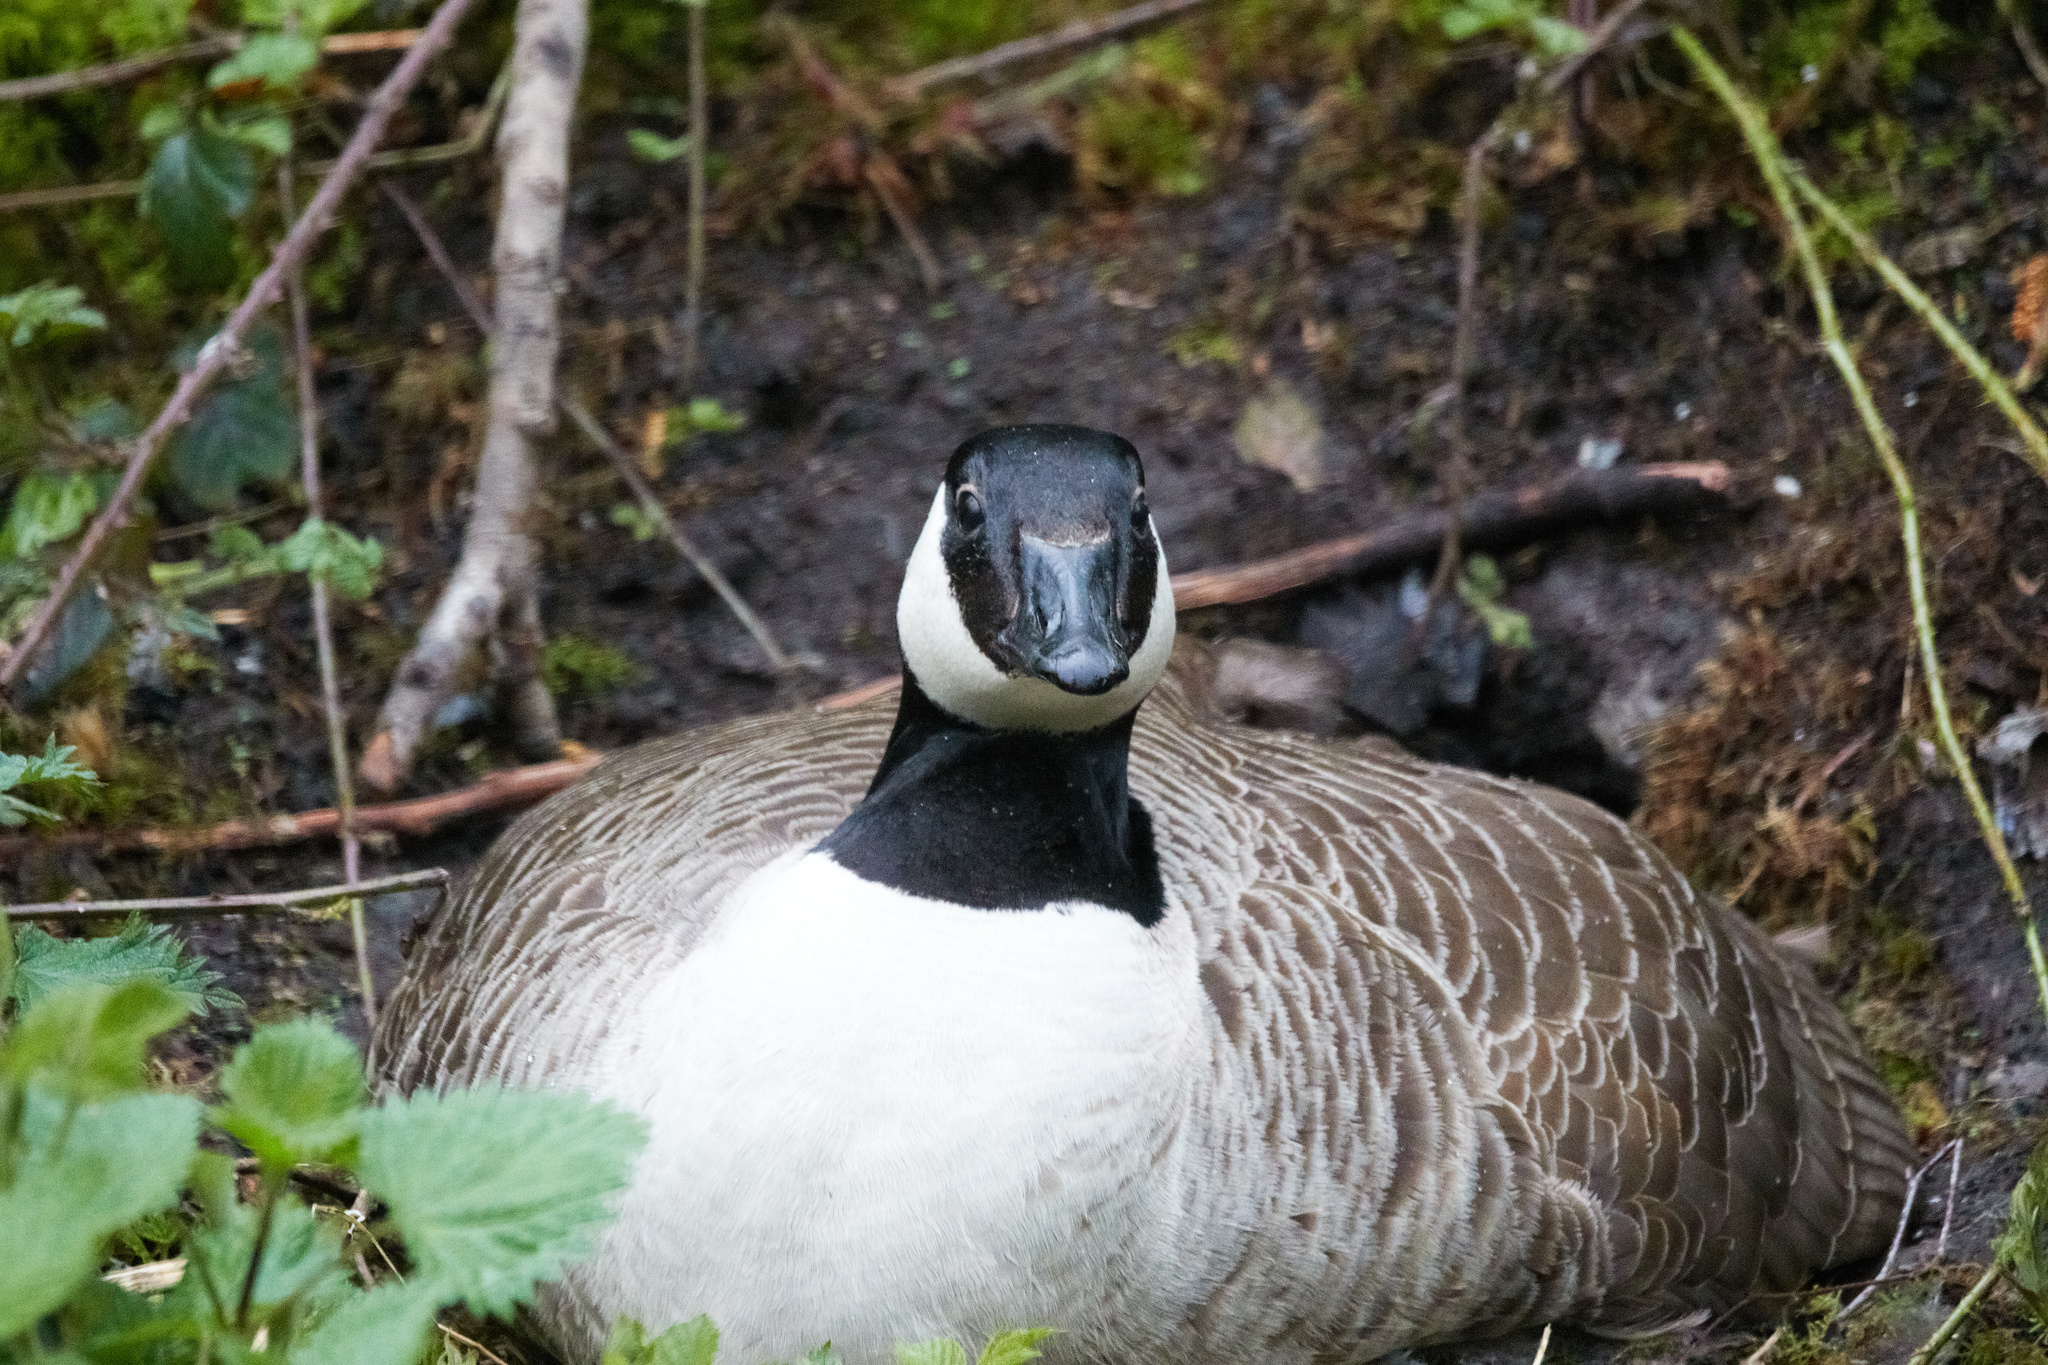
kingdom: Animalia
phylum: Chordata
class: Aves
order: Anseriformes
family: Anatidae
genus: Branta
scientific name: Branta canadensis
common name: Canada goose
